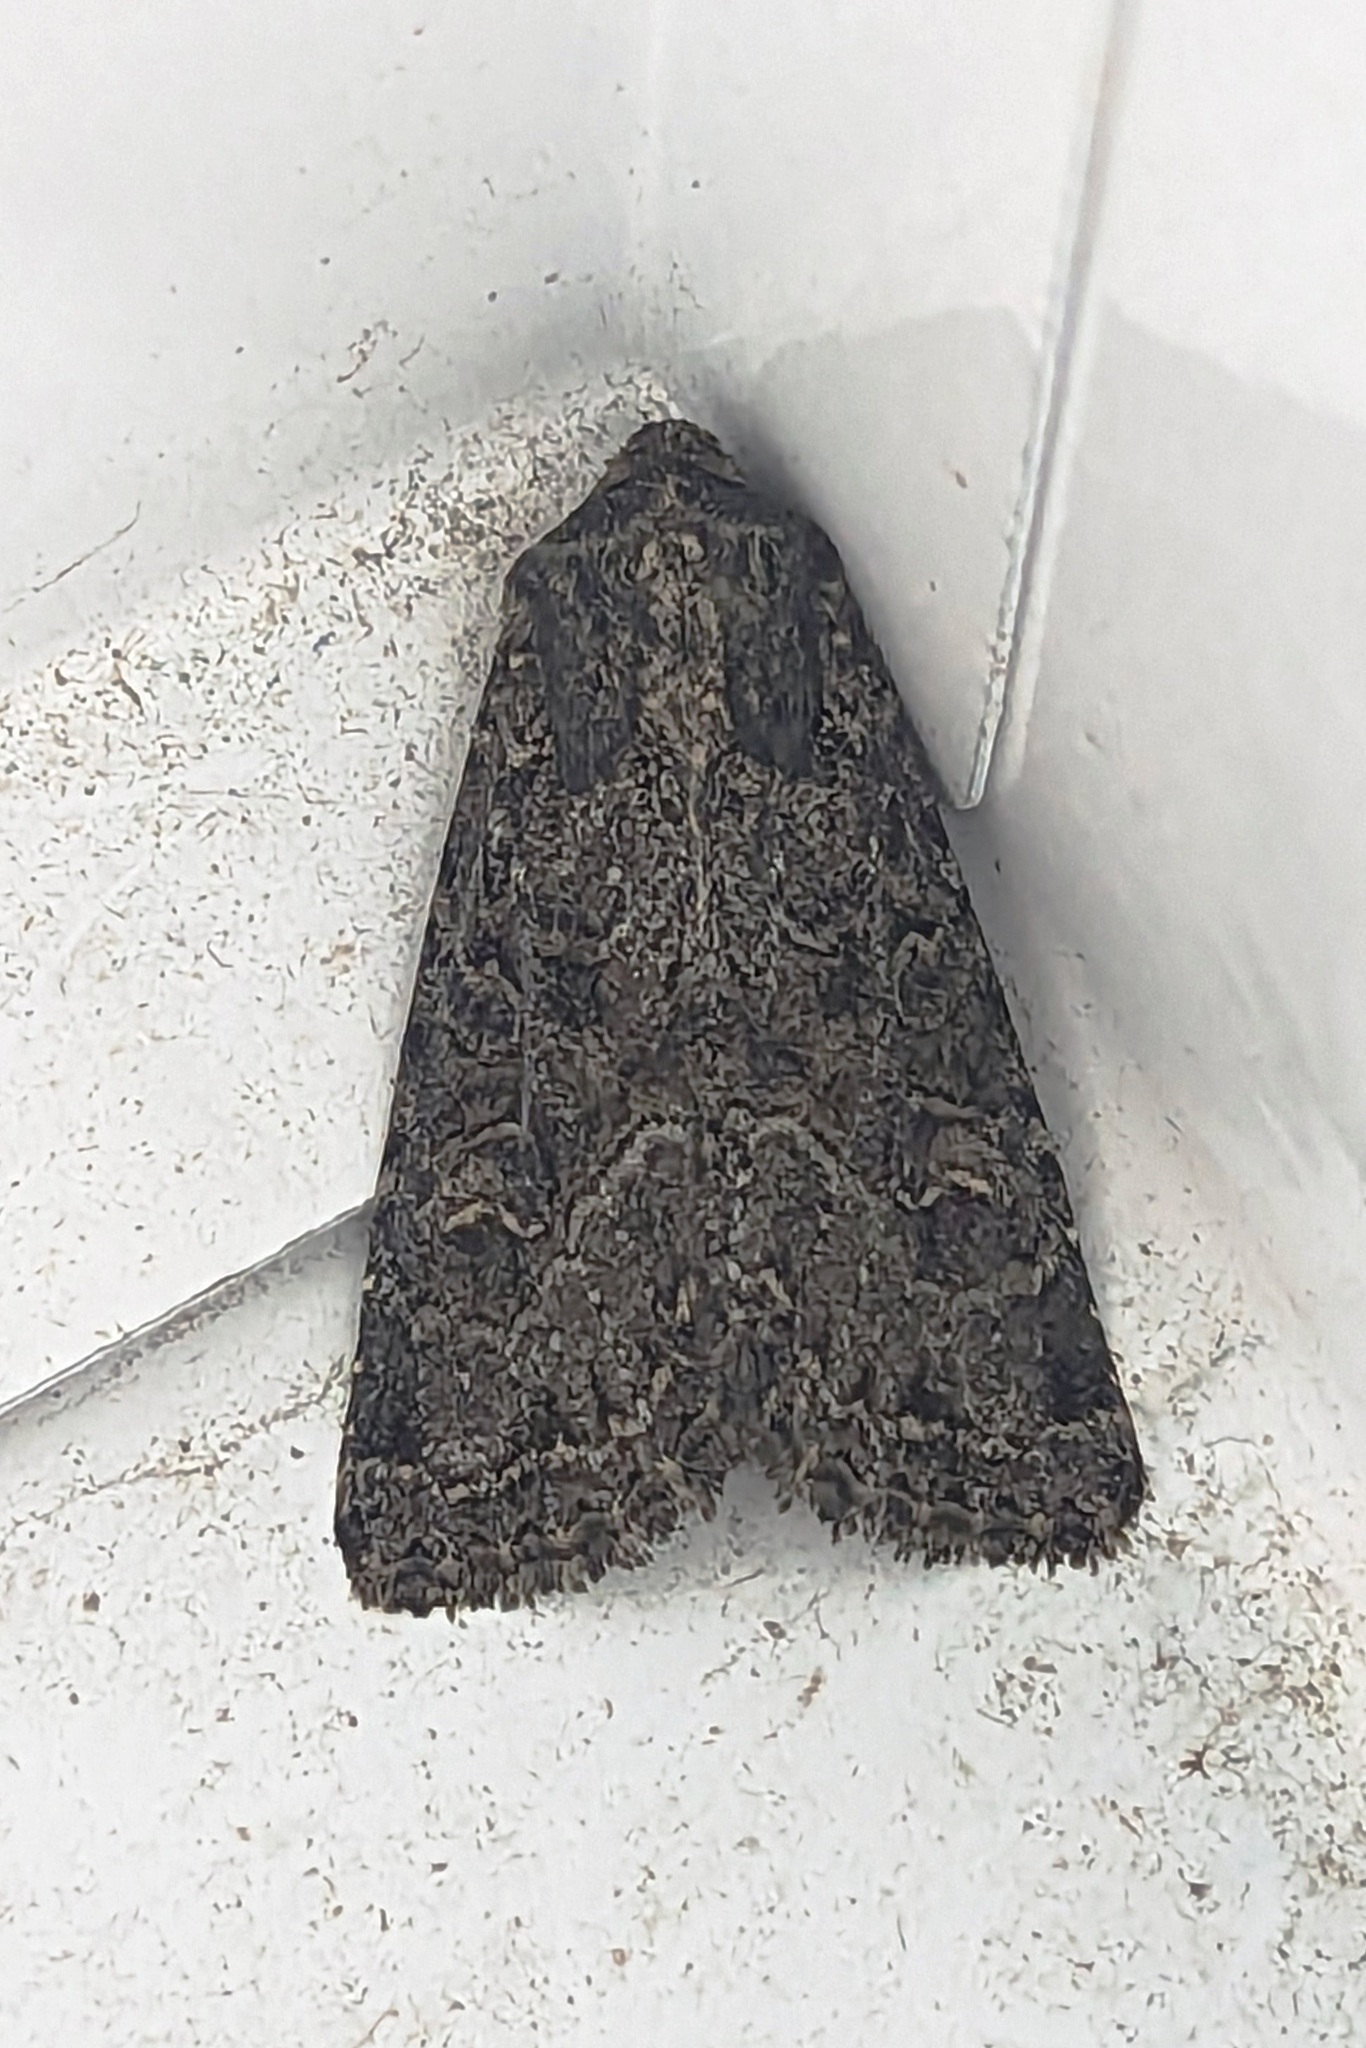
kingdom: Animalia
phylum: Arthropoda
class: Insecta
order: Lepidoptera
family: Noctuidae
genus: Apamea
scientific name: Apamea devastator
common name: Glassy cutworm
